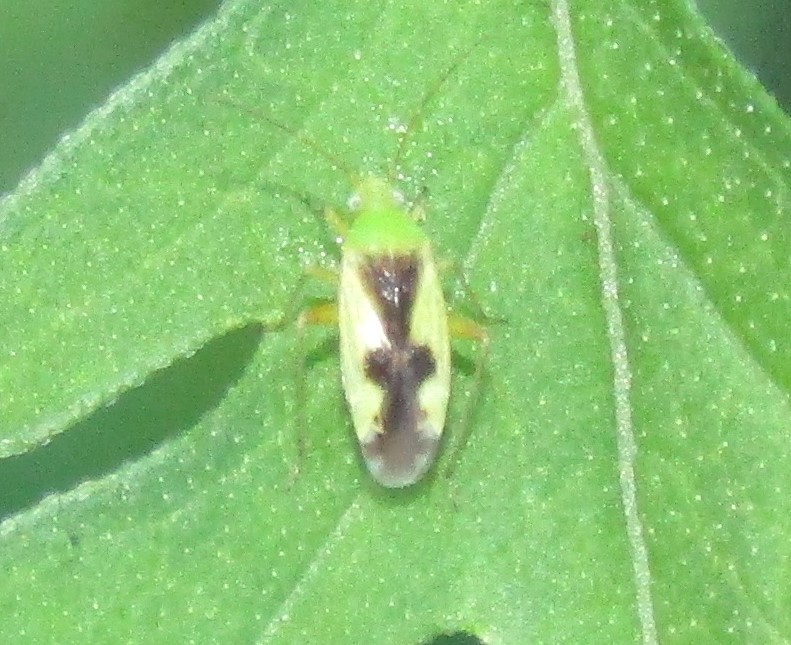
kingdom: Animalia
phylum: Arthropoda
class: Insecta
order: Hemiptera
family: Miridae
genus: Reuteroscopus
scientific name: Reuteroscopus ornatus
